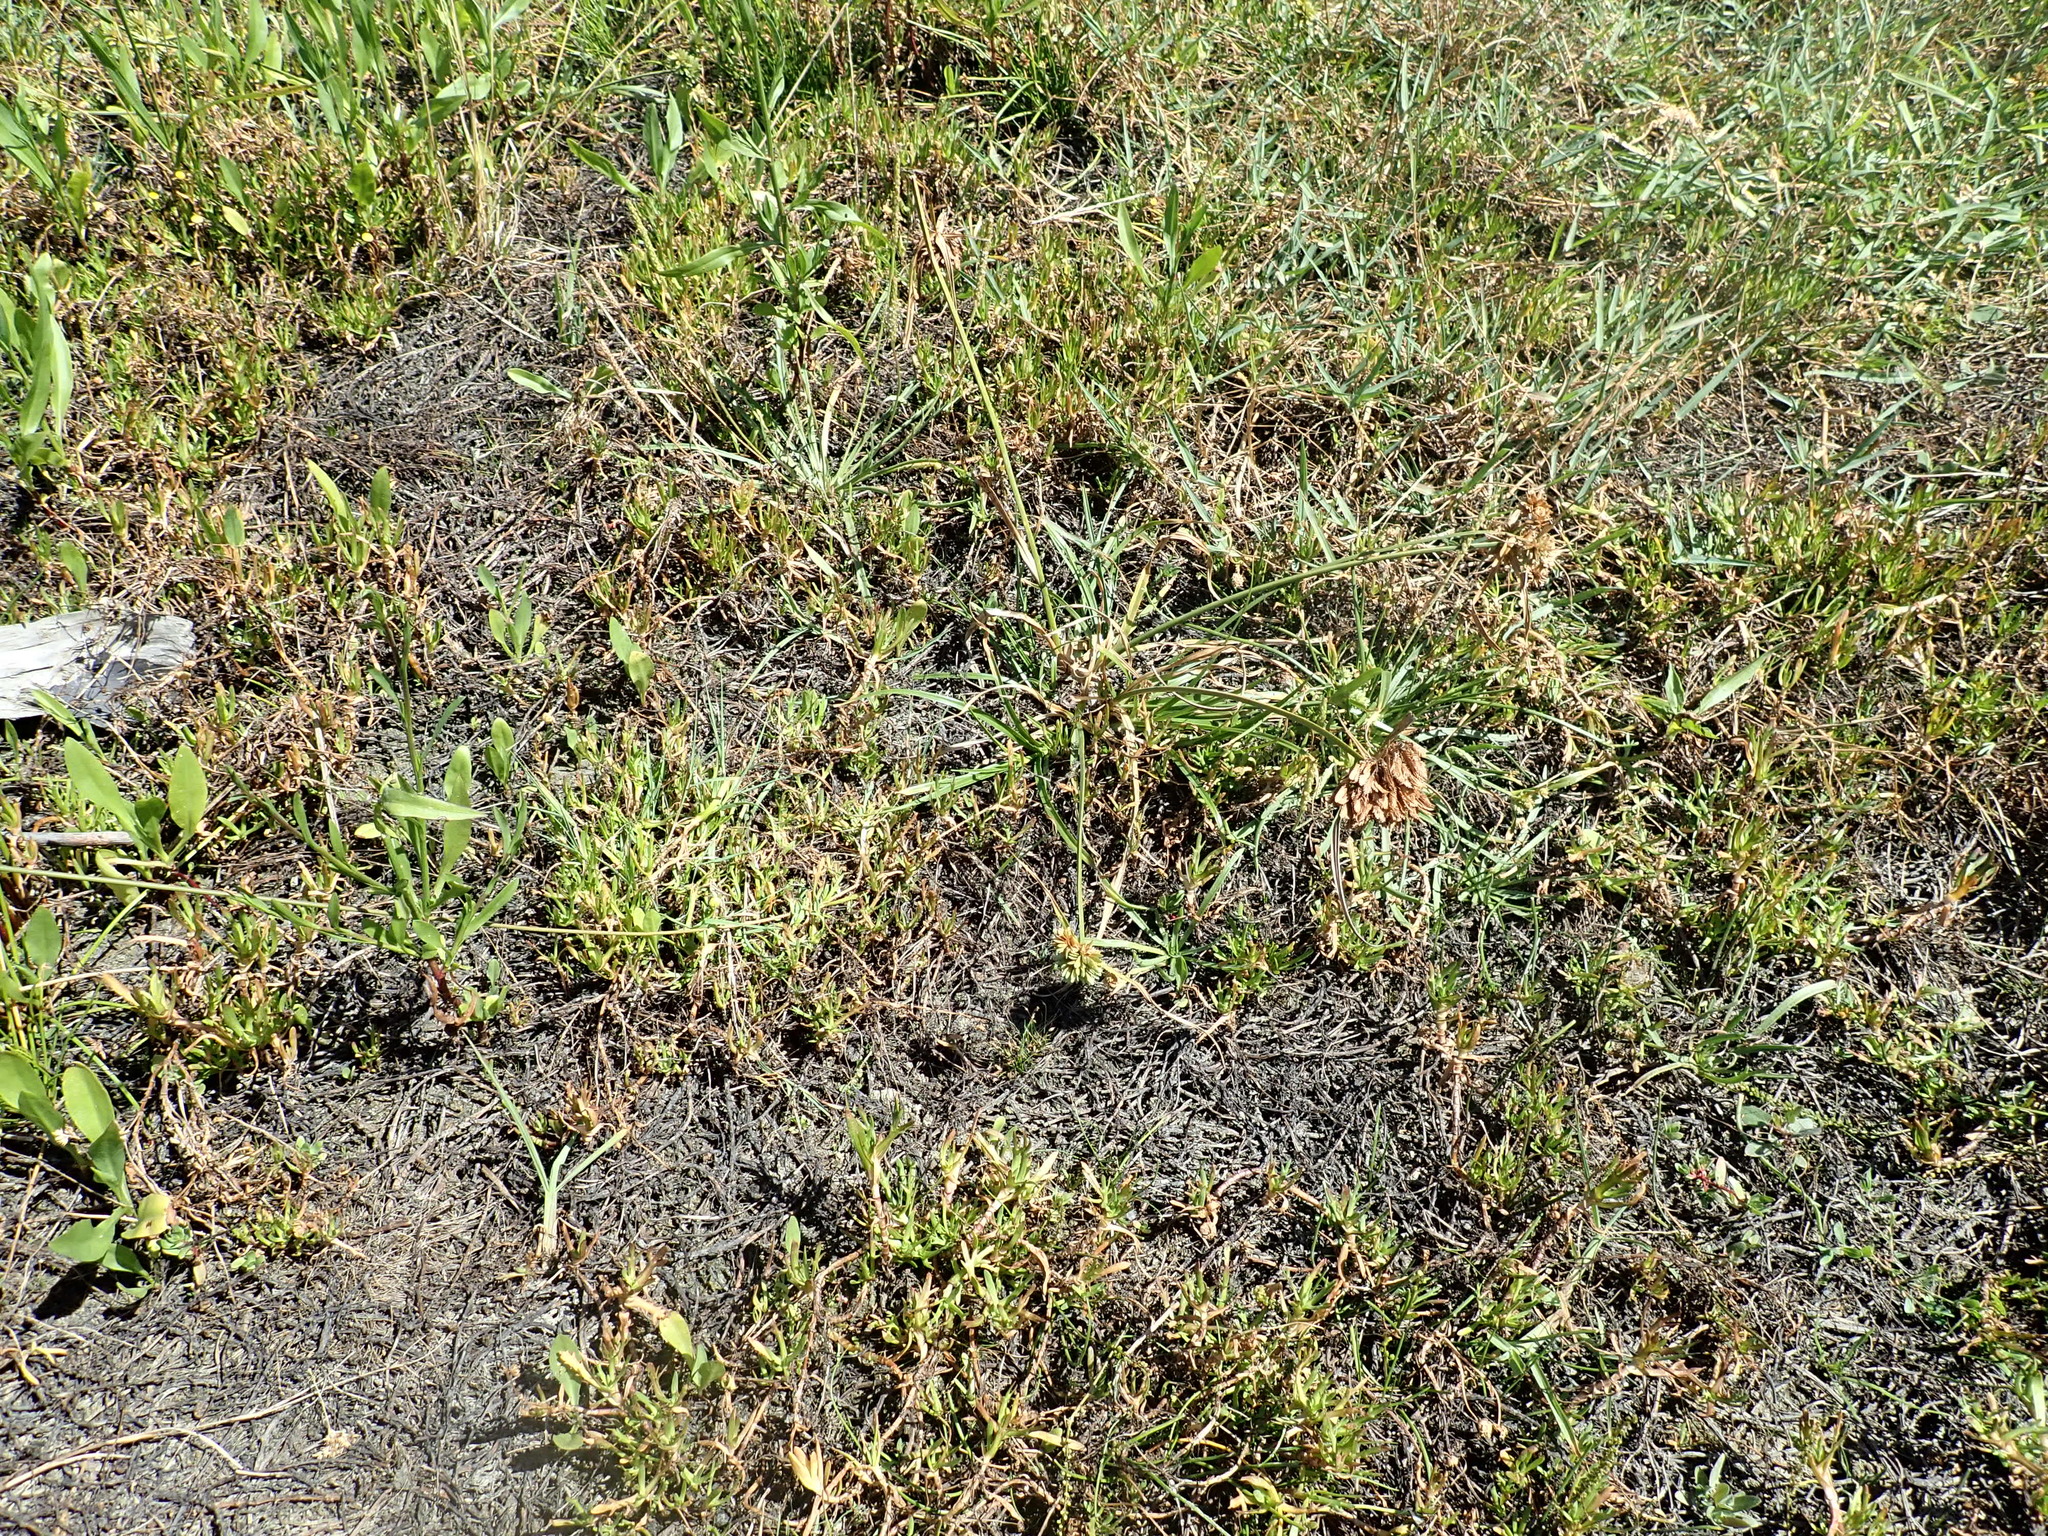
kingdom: Plantae
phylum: Tracheophyta
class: Liliopsida
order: Poales
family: Cyperaceae
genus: Cyperus
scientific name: Cyperus eragrostis
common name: Tall flatsedge
